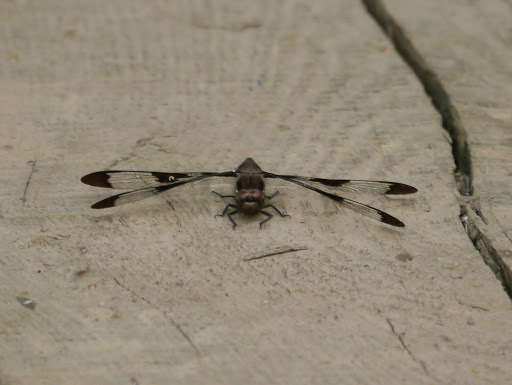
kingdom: Animalia
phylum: Arthropoda
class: Insecta
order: Odonata
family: Libellulidae
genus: Plathemis
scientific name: Plathemis lydia
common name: Common whitetail
